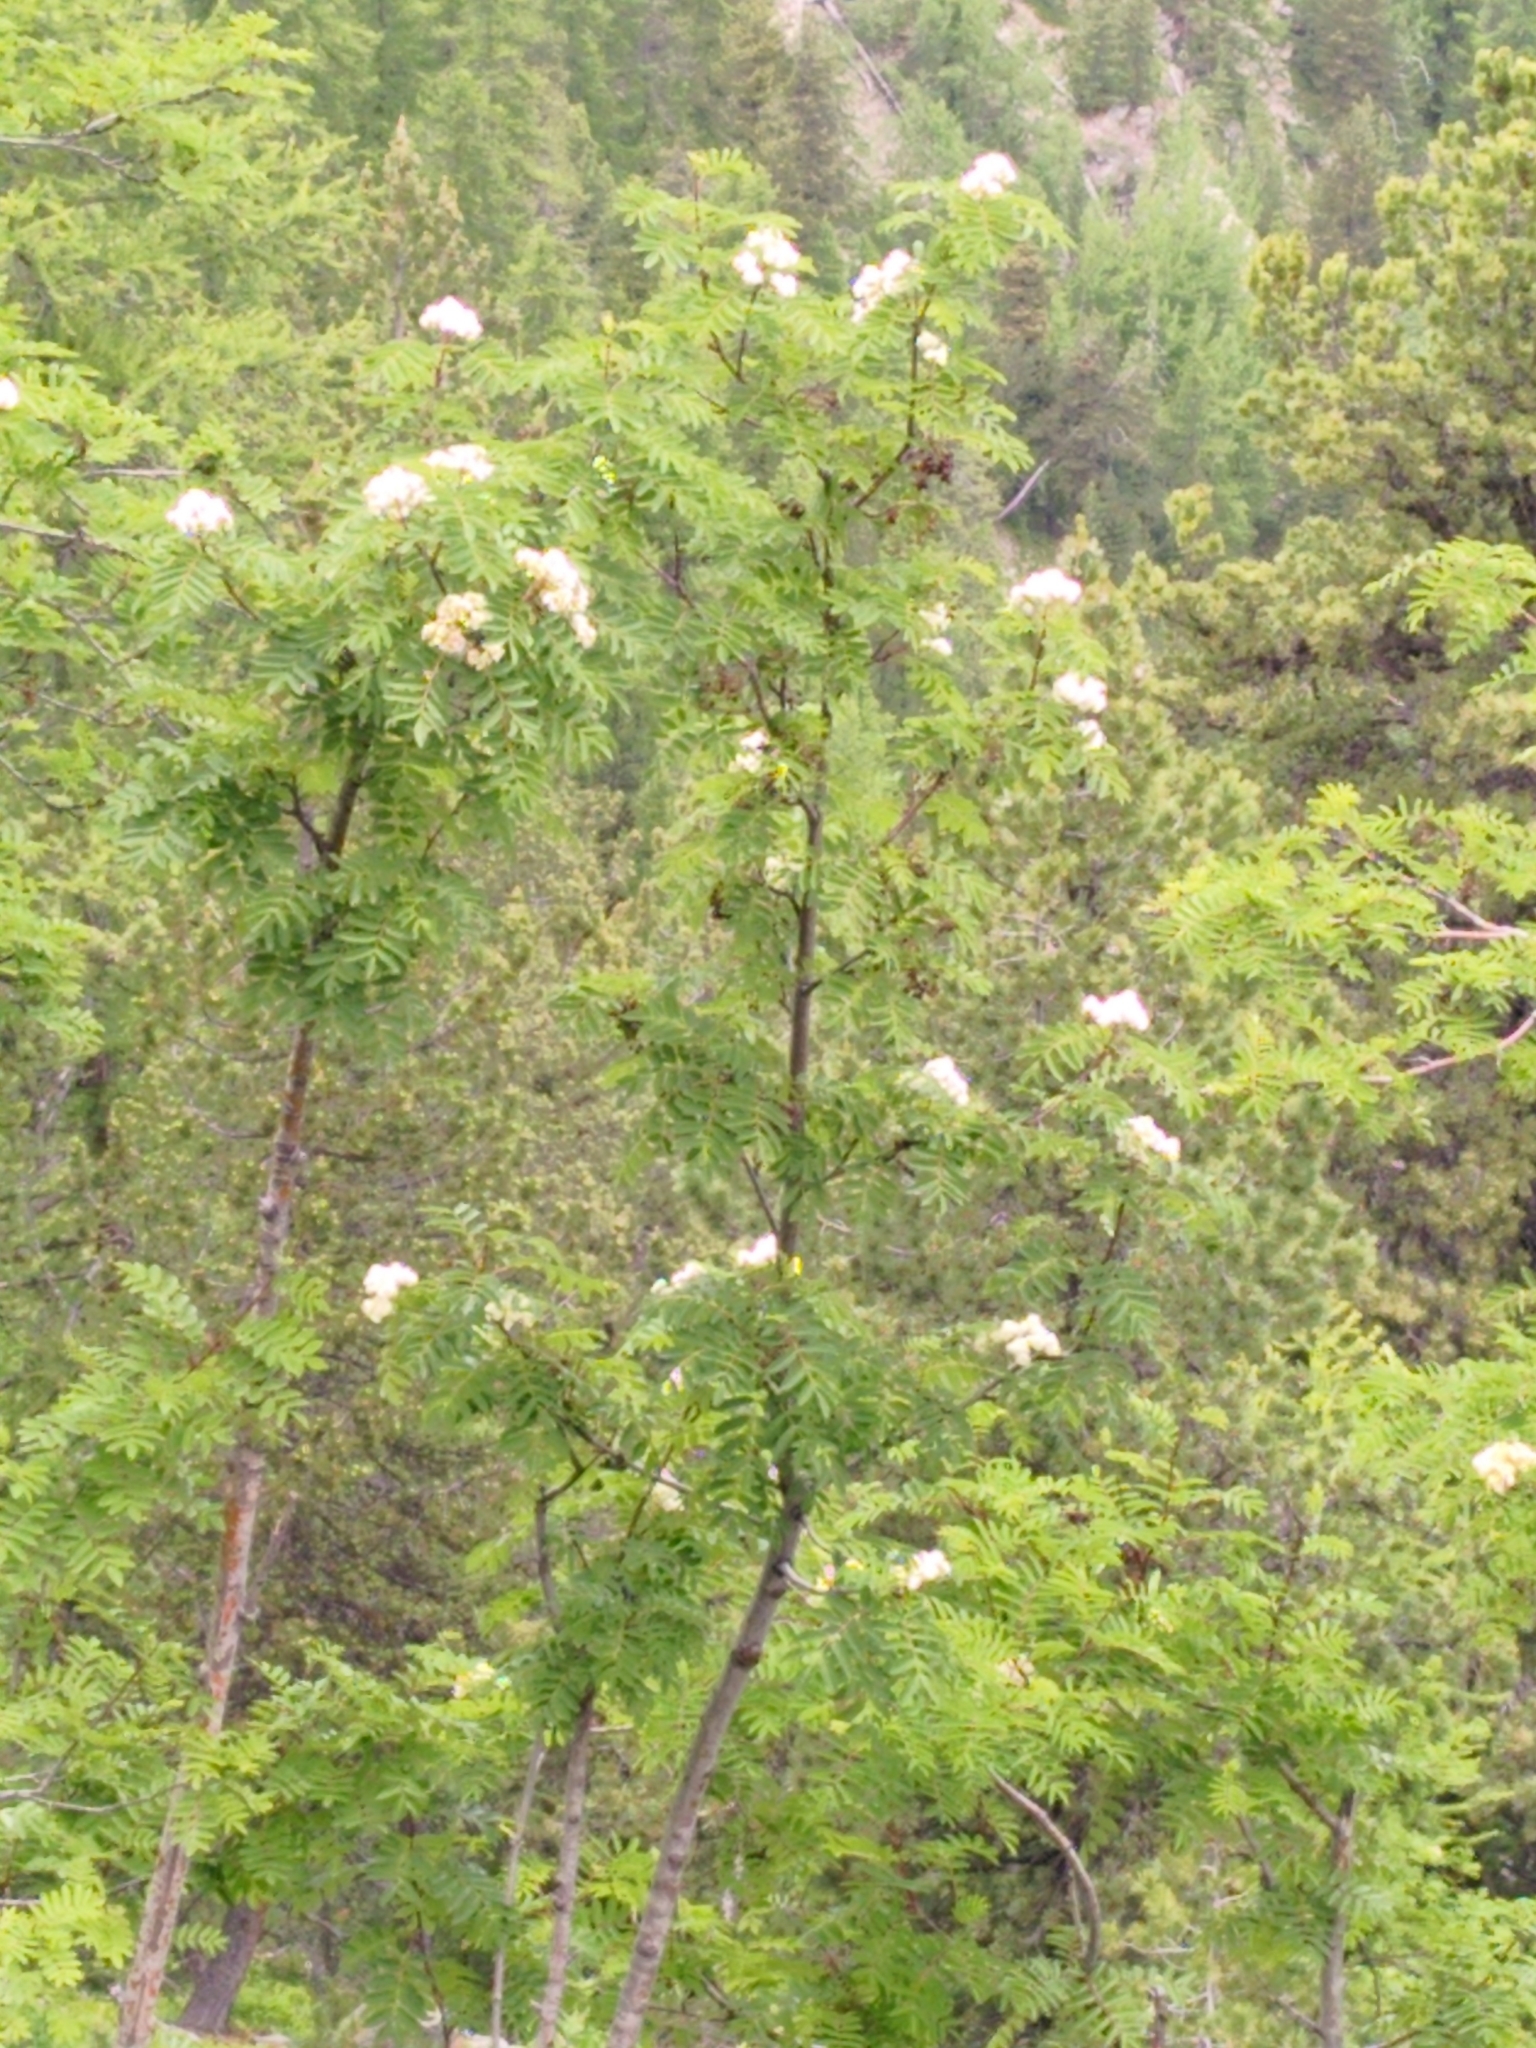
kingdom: Plantae
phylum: Tracheophyta
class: Magnoliopsida
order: Rosales
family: Rosaceae
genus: Sorbus
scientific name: Sorbus aucuparia
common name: Rowan
